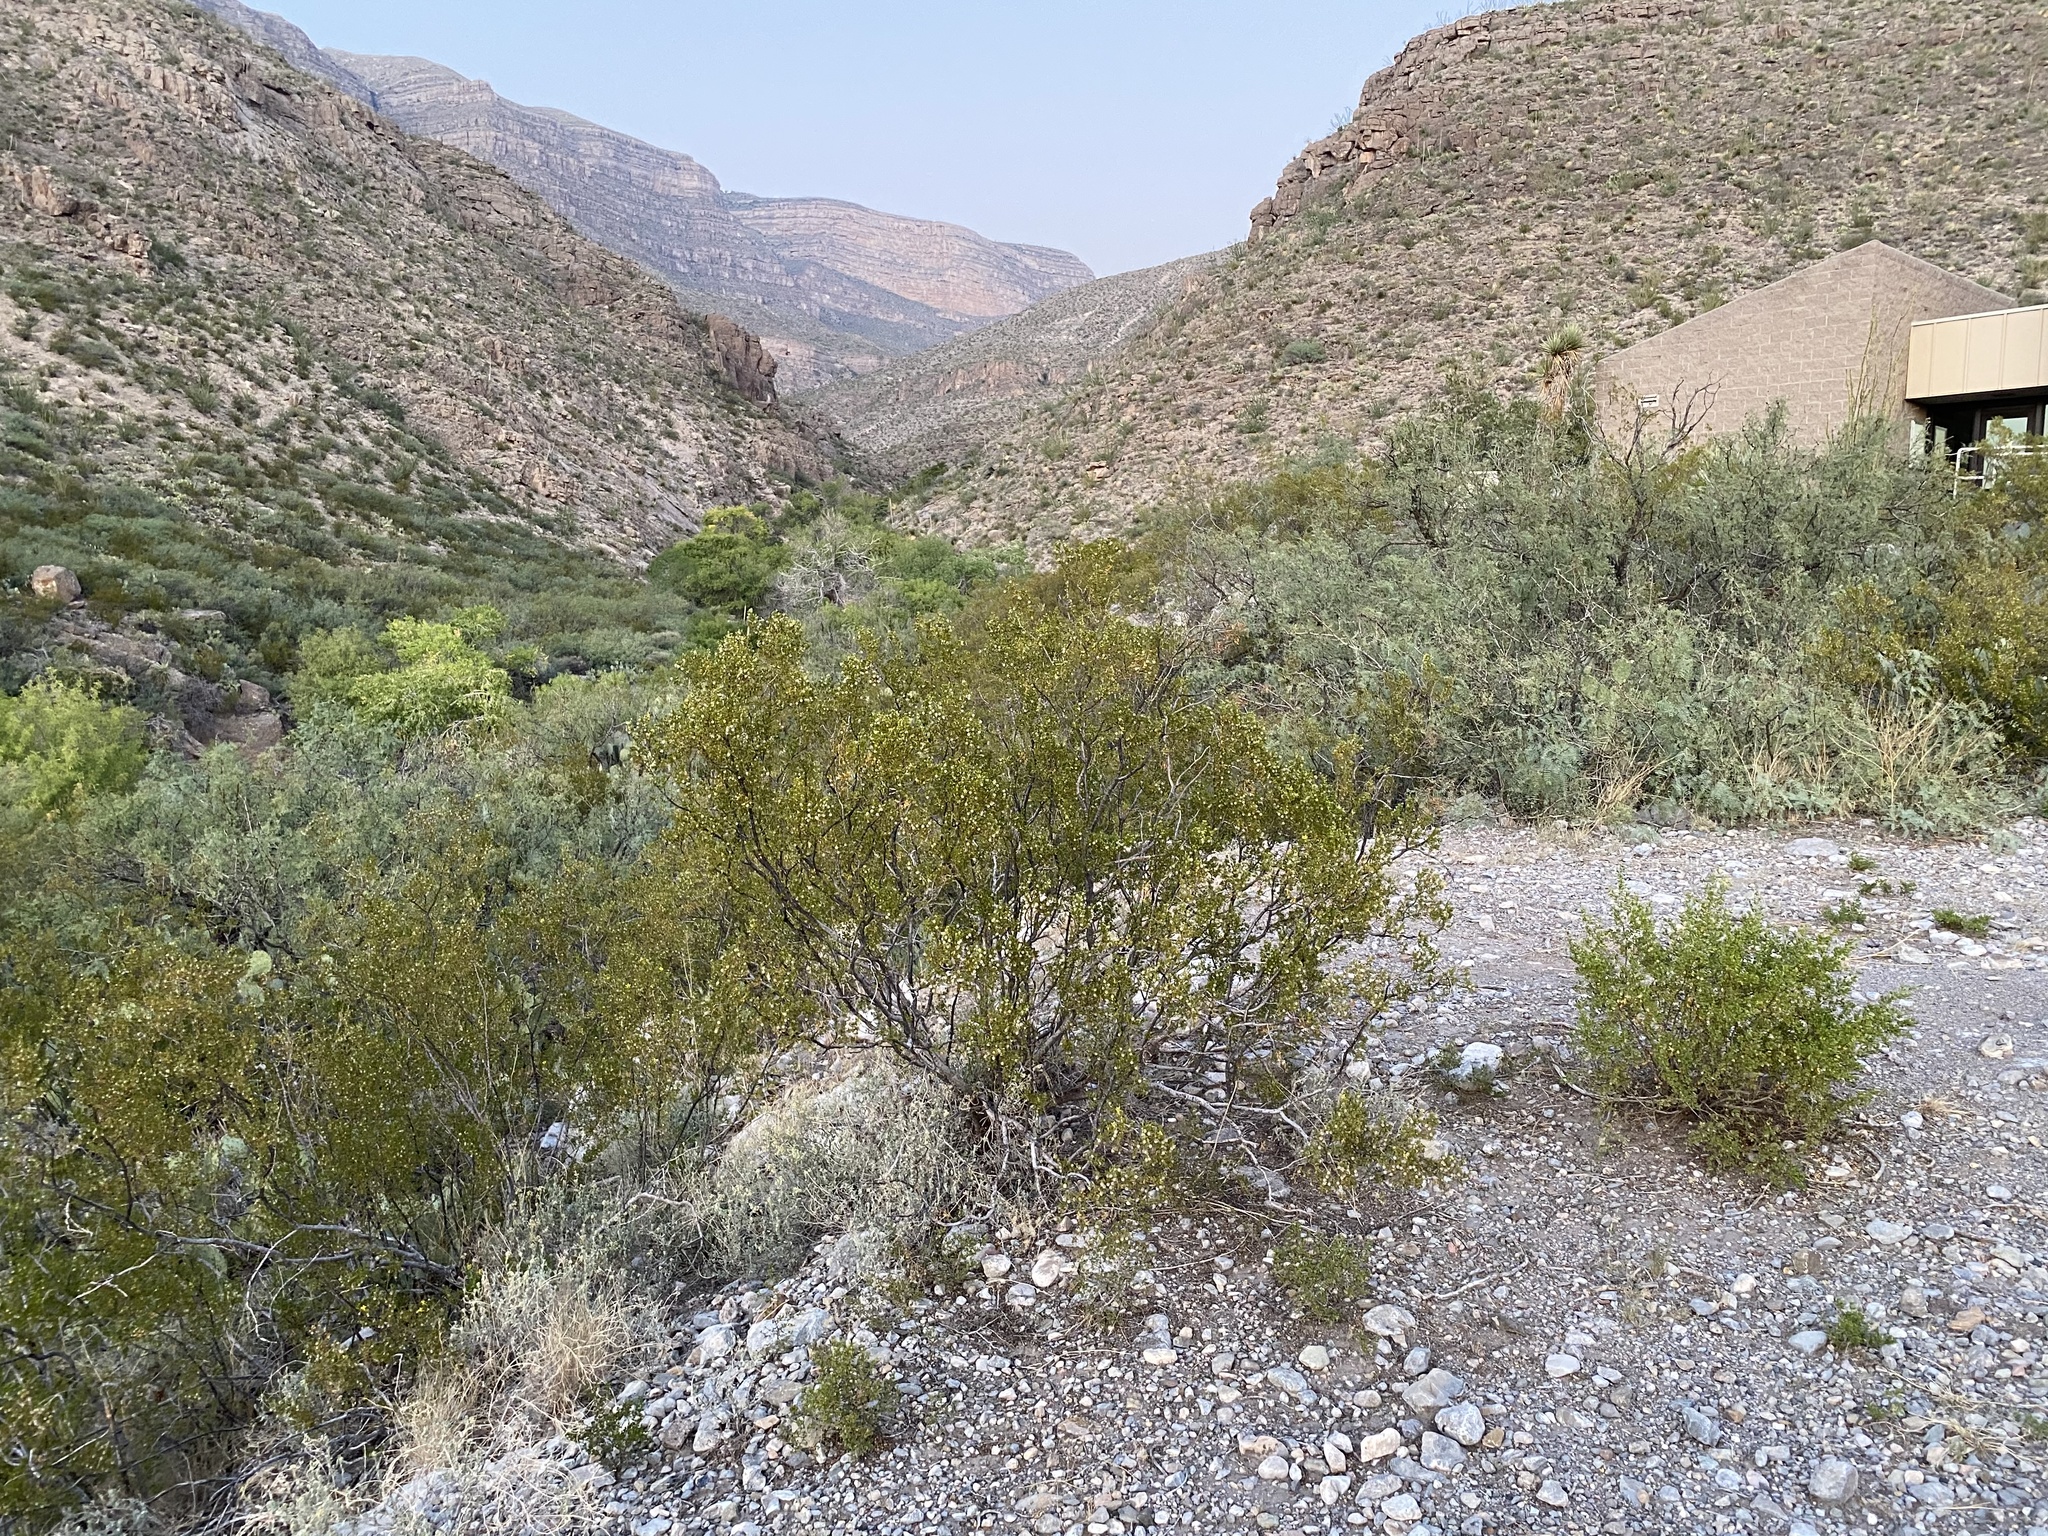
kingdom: Plantae
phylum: Tracheophyta
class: Magnoliopsida
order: Zygophyllales
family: Zygophyllaceae
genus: Larrea
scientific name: Larrea tridentata
